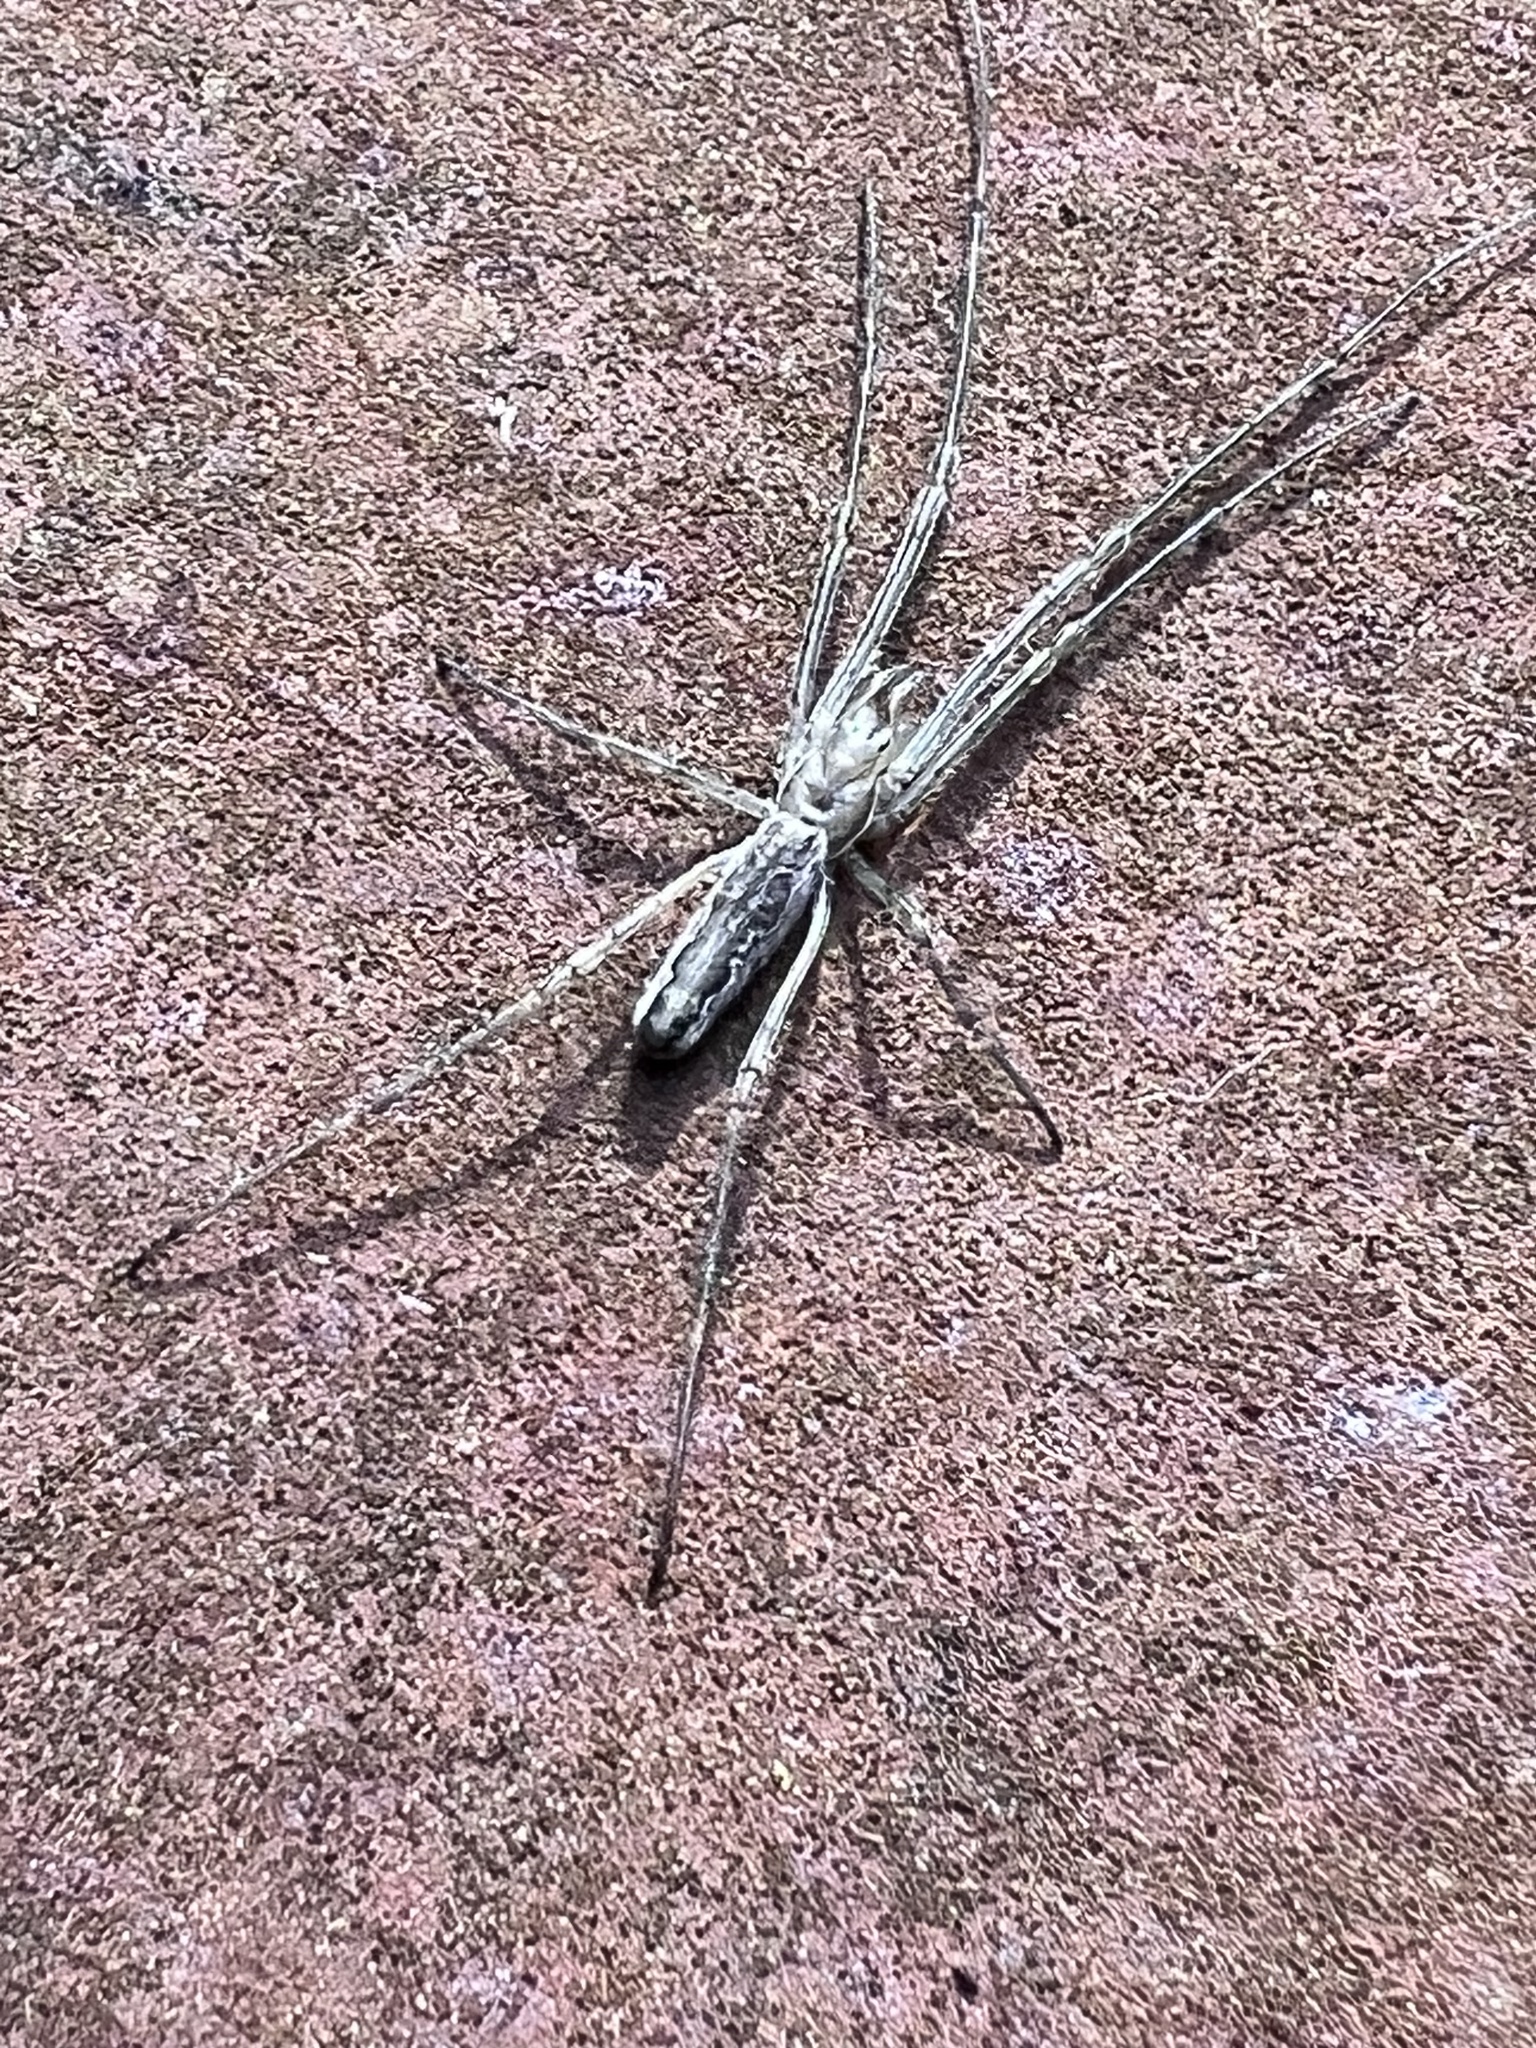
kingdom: Animalia
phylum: Arthropoda
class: Arachnida
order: Araneae
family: Tetragnathidae
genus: Tetragnatha
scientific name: Tetragnatha versicolor
